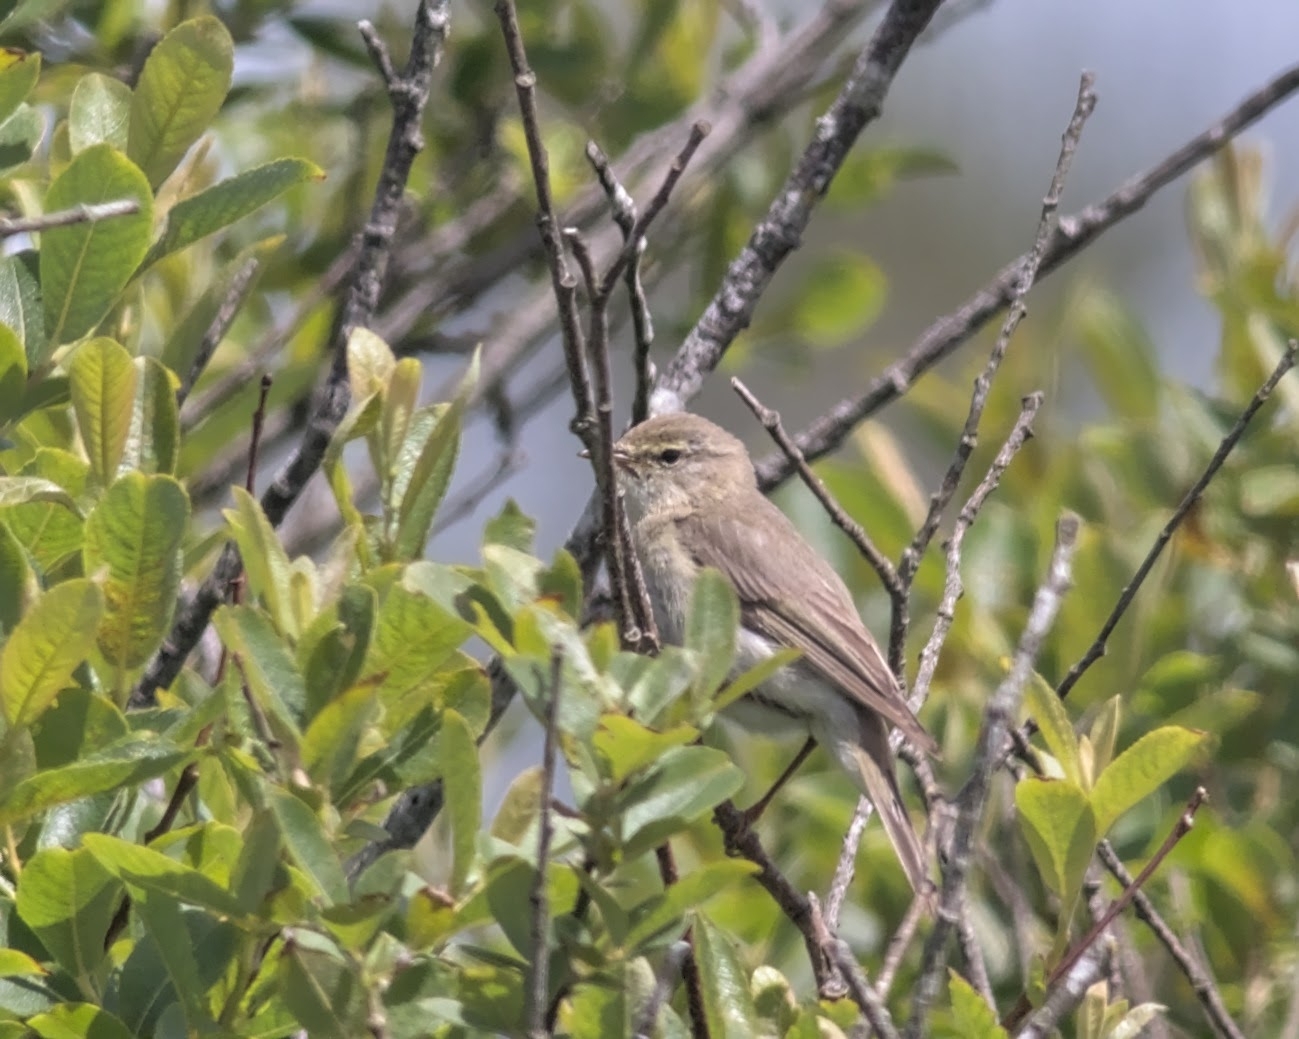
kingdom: Animalia
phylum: Chordata
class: Aves
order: Passeriformes
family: Phylloscopidae
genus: Phylloscopus
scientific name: Phylloscopus collybita
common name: Common chiffchaff
